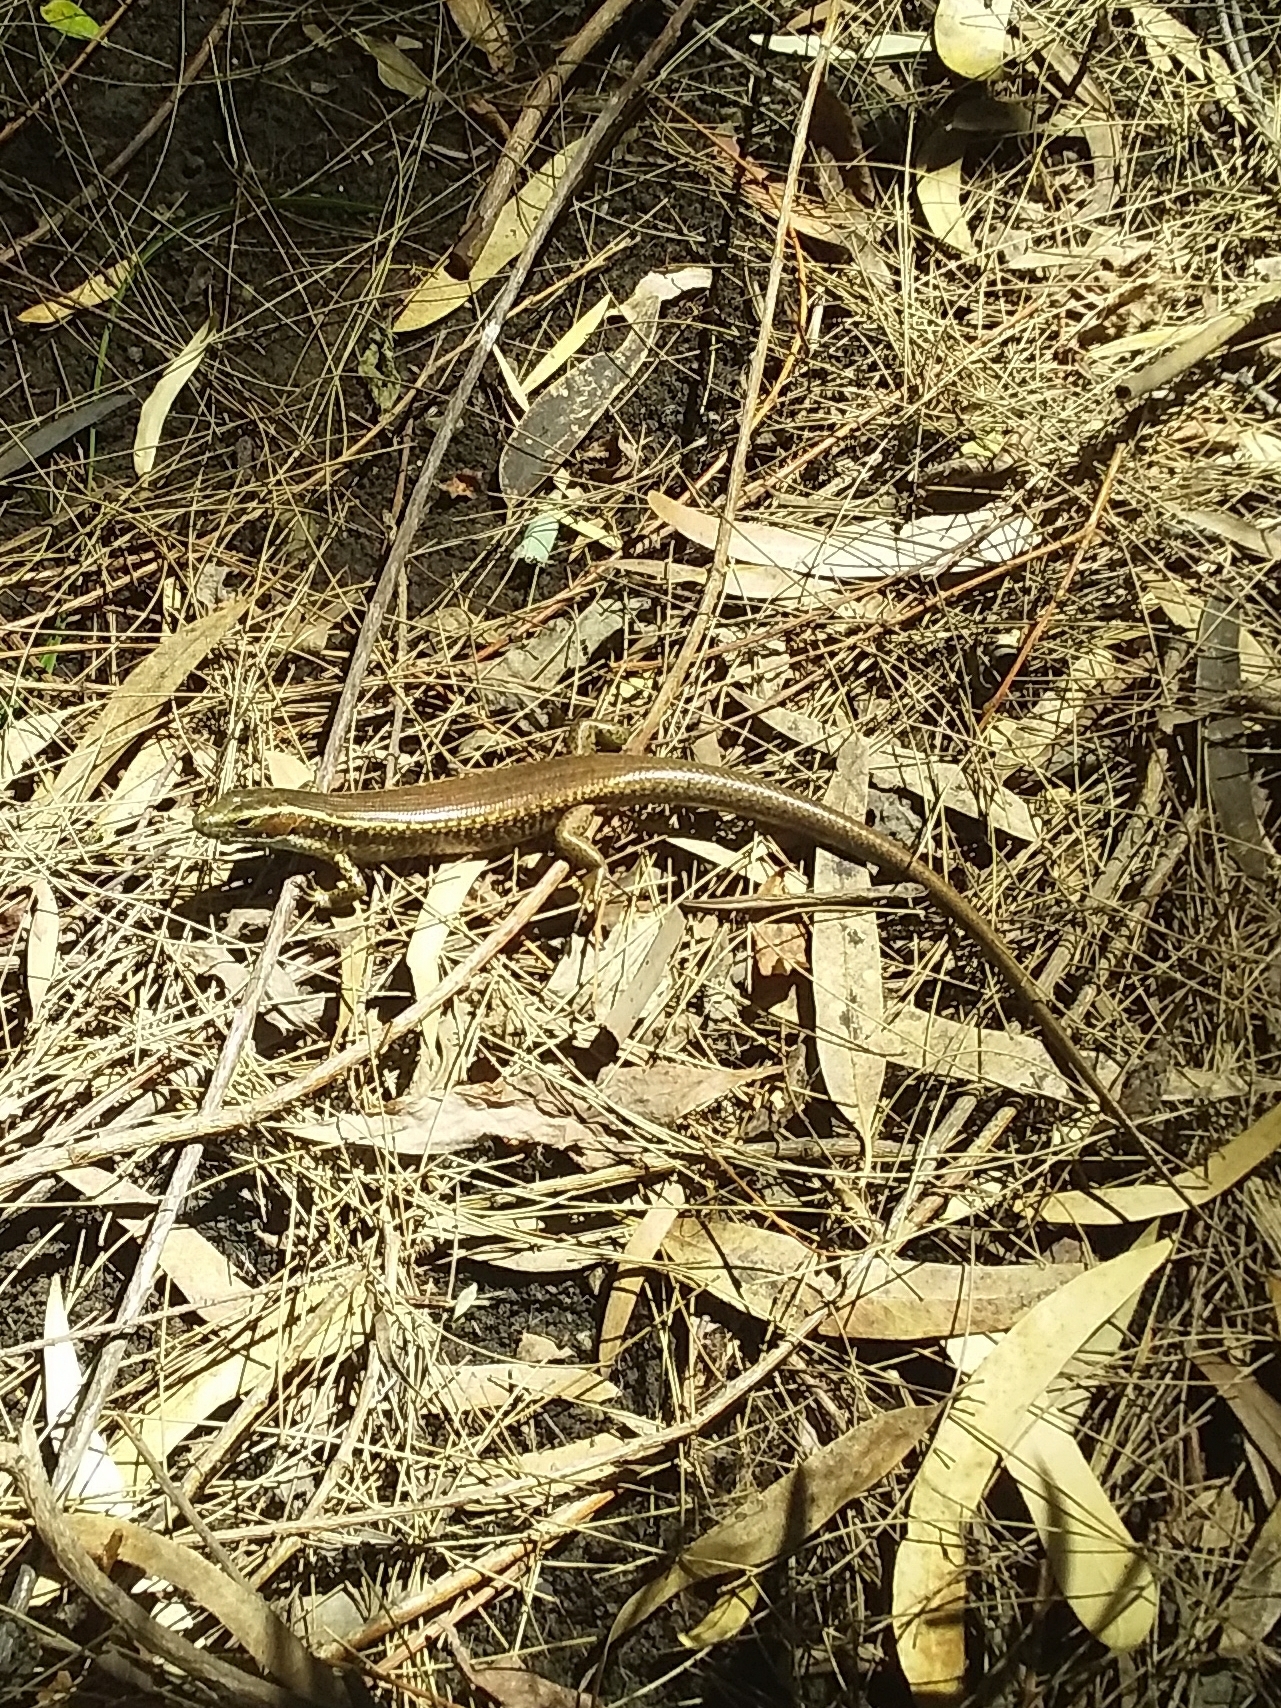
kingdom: Animalia
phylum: Chordata
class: Squamata
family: Scincidae
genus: Eulamprus
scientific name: Eulamprus quoyii
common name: Eastern water skink
